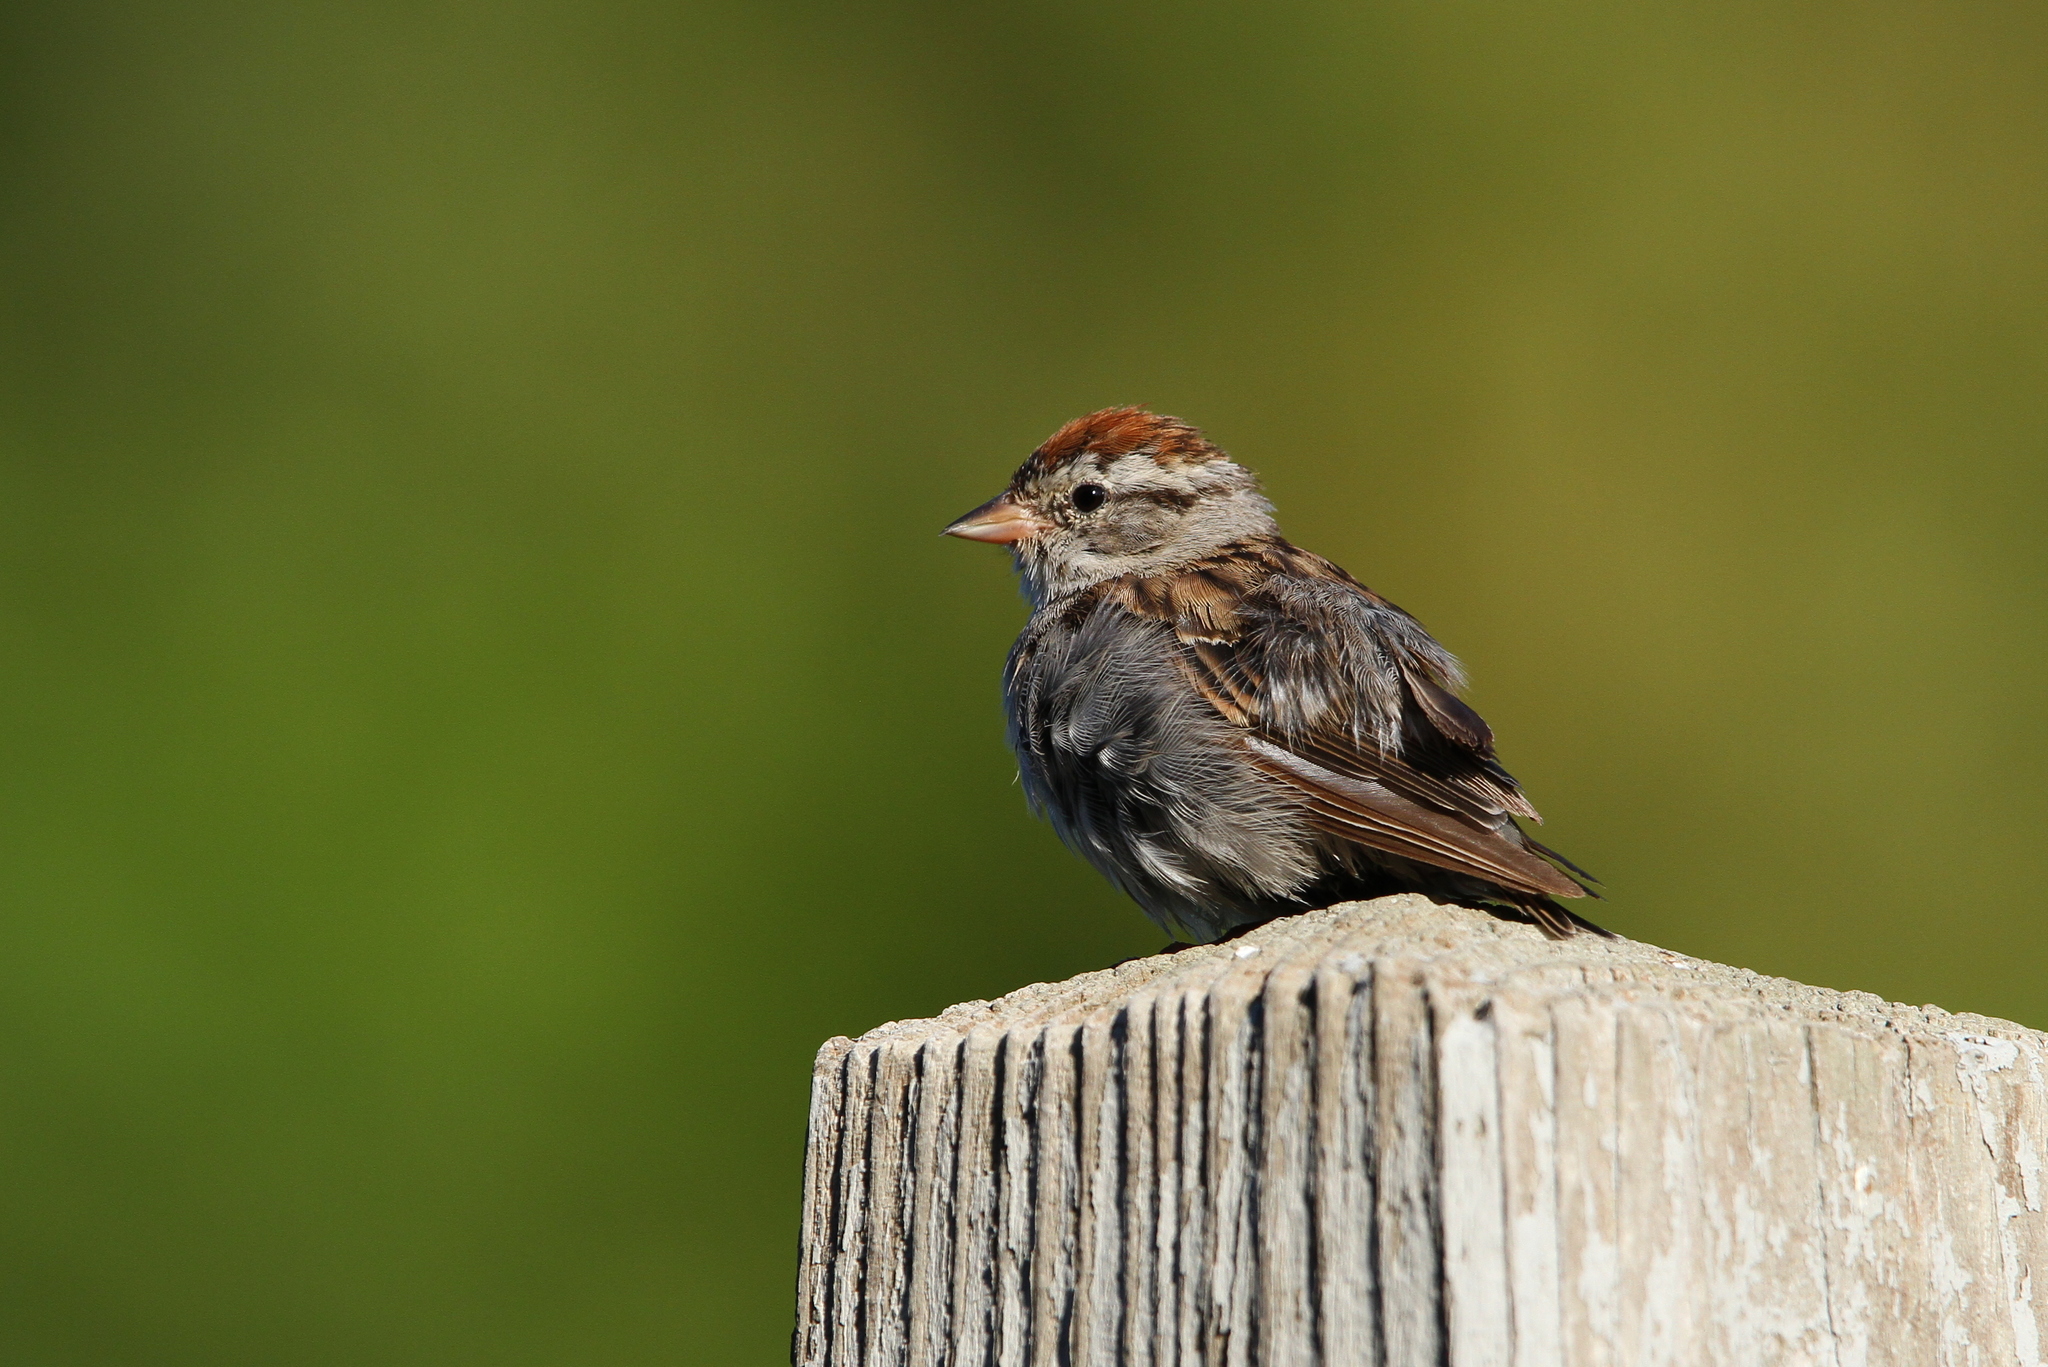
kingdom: Animalia
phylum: Chordata
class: Aves
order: Passeriformes
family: Passerellidae
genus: Spizella
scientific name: Spizella passerina
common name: Chipping sparrow
